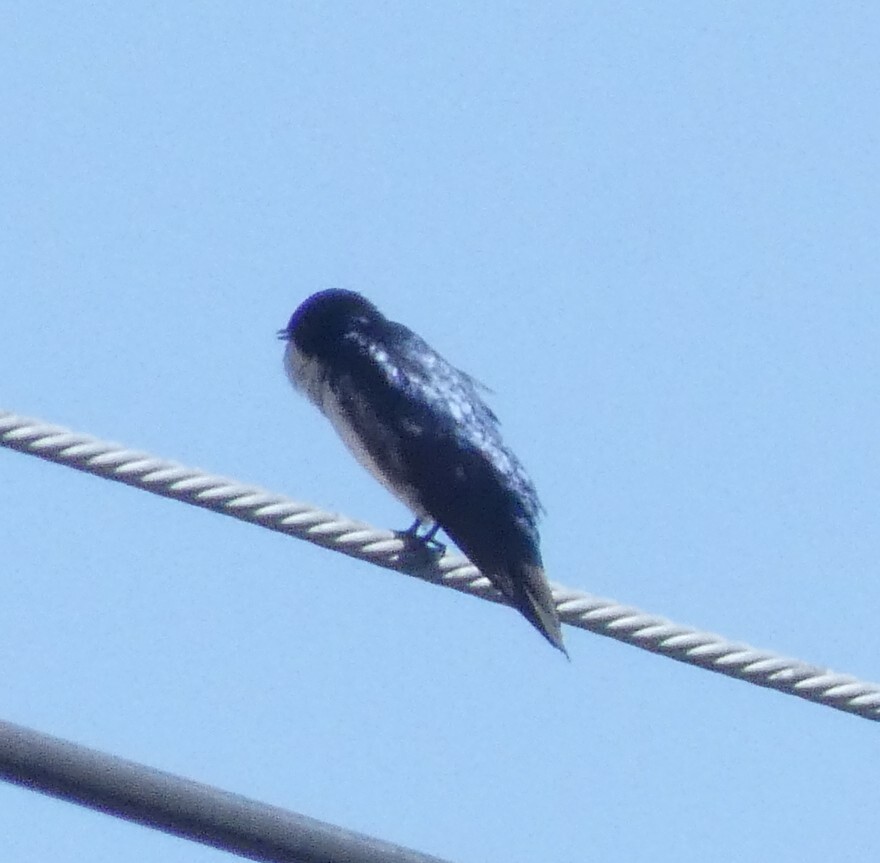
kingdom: Animalia
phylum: Chordata
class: Aves
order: Passeriformes
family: Hirundinidae
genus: Notiochelidon
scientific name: Notiochelidon cyanoleuca
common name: Blue-and-white swallow
